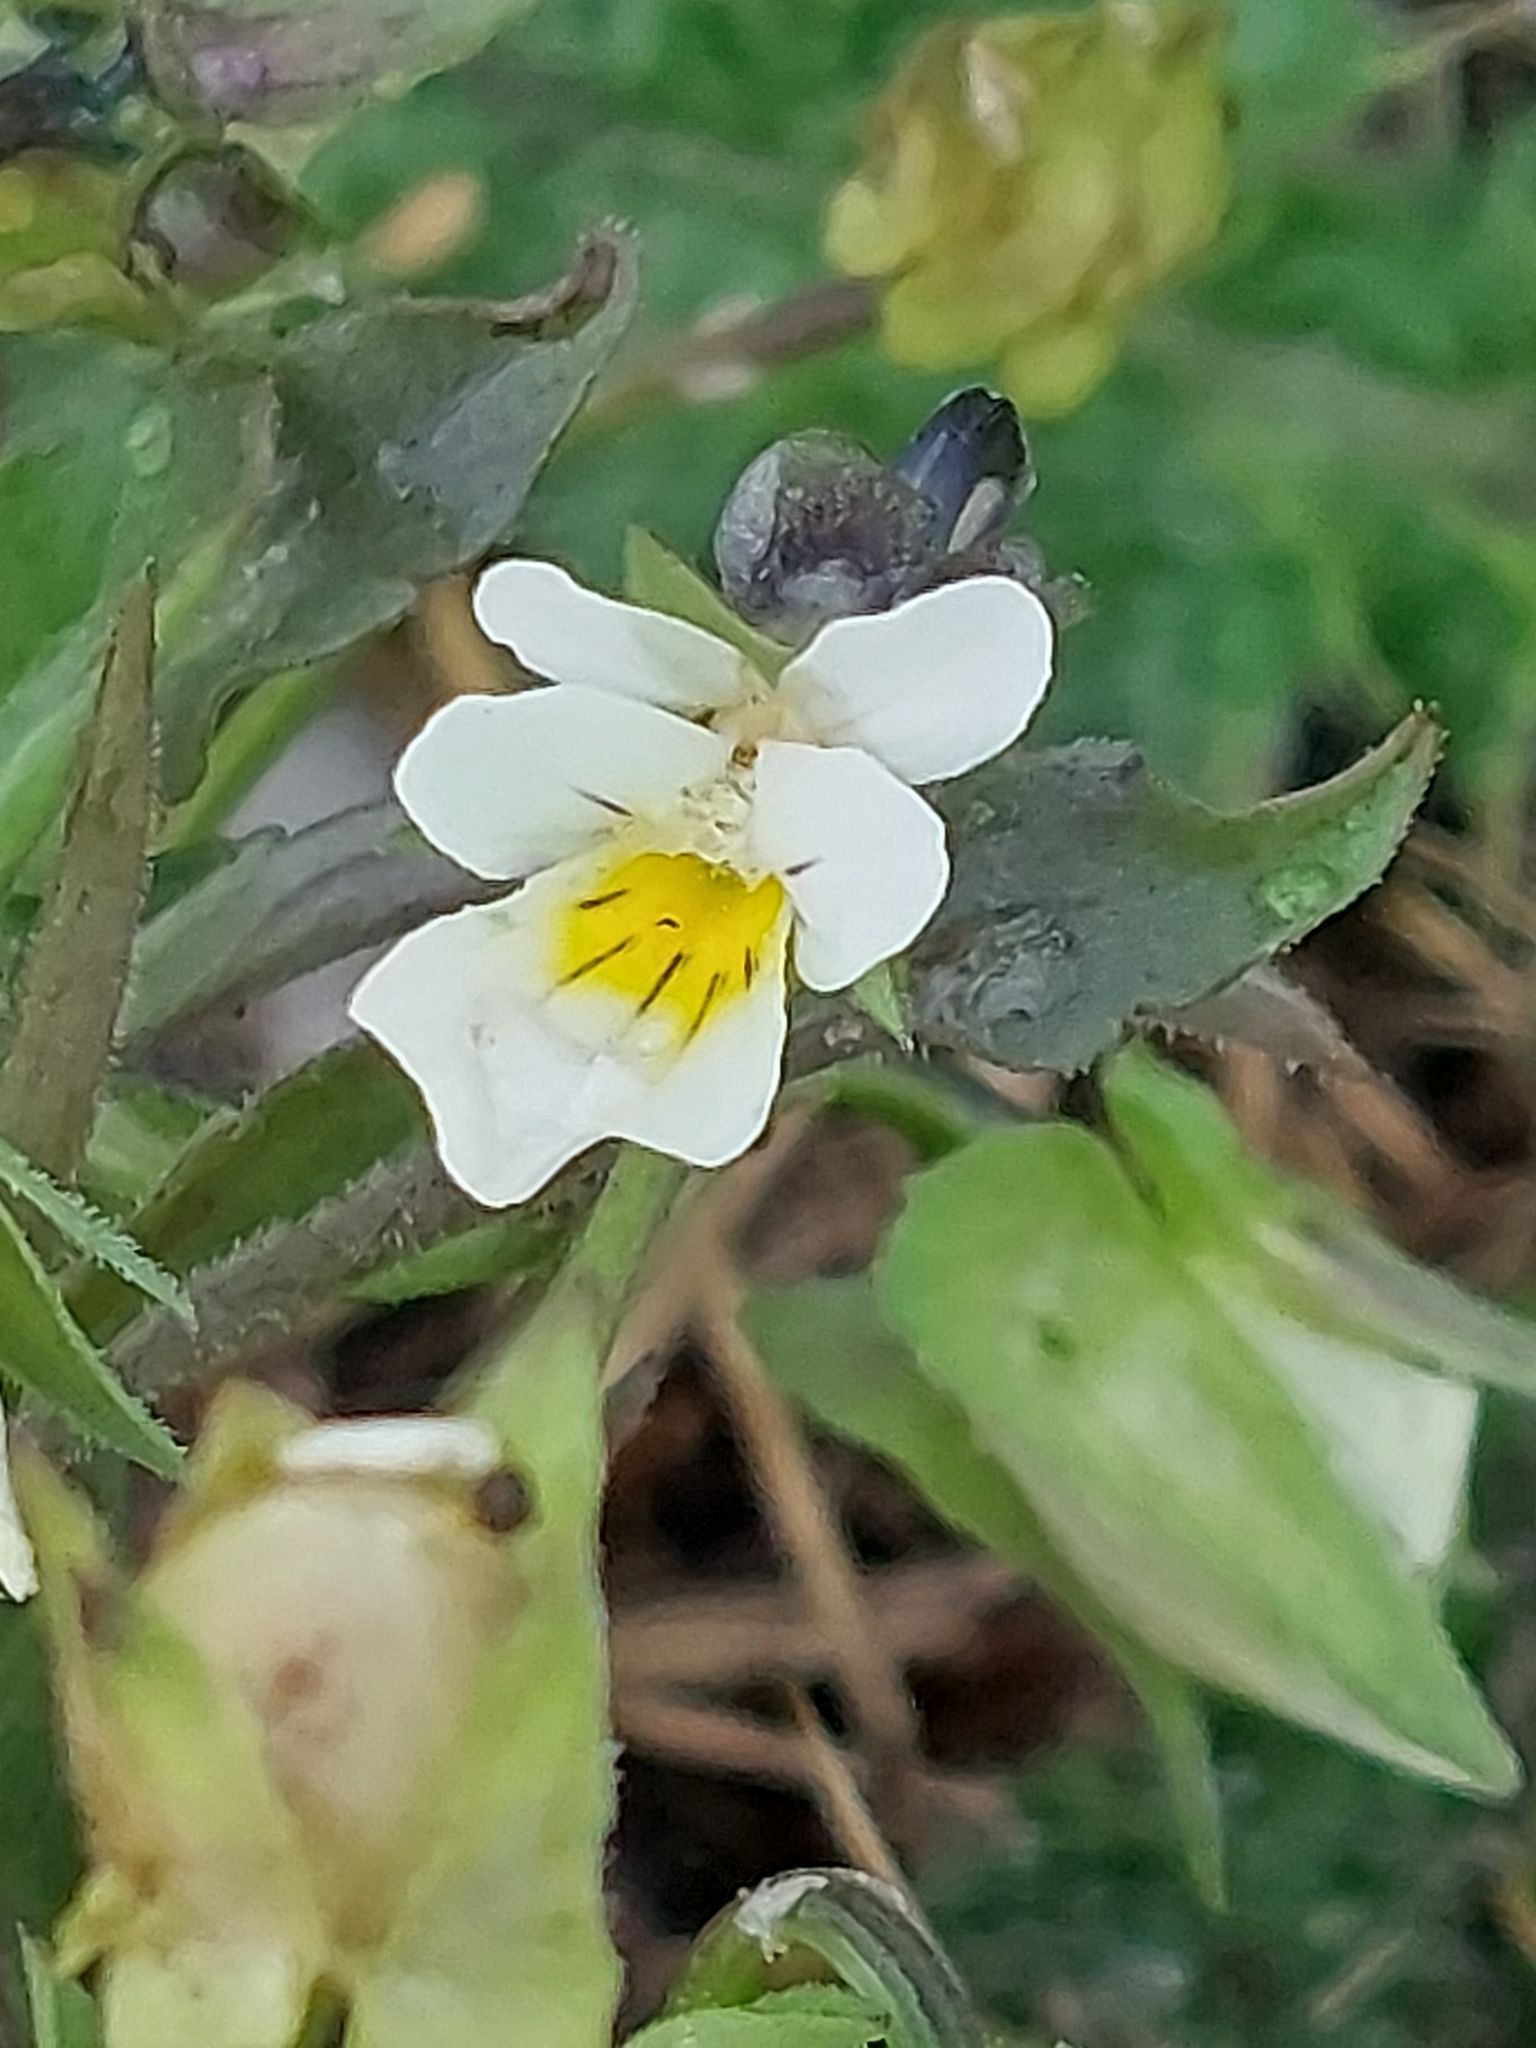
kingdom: Plantae
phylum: Tracheophyta
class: Magnoliopsida
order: Malpighiales
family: Violaceae
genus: Viola
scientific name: Viola arvensis
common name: Field pansy
